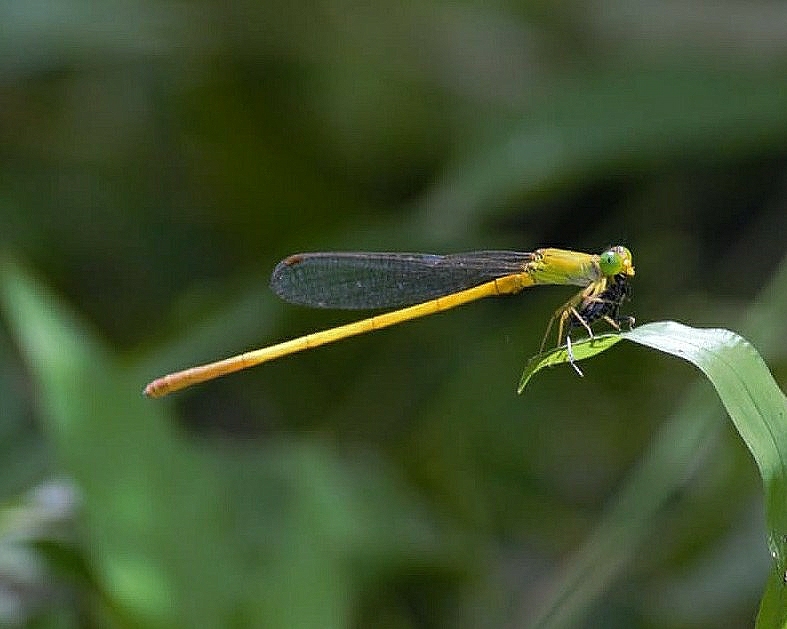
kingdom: Animalia
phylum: Arthropoda
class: Insecta
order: Odonata
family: Coenagrionidae
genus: Ceriagrion
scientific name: Ceriagrion chromothorax
